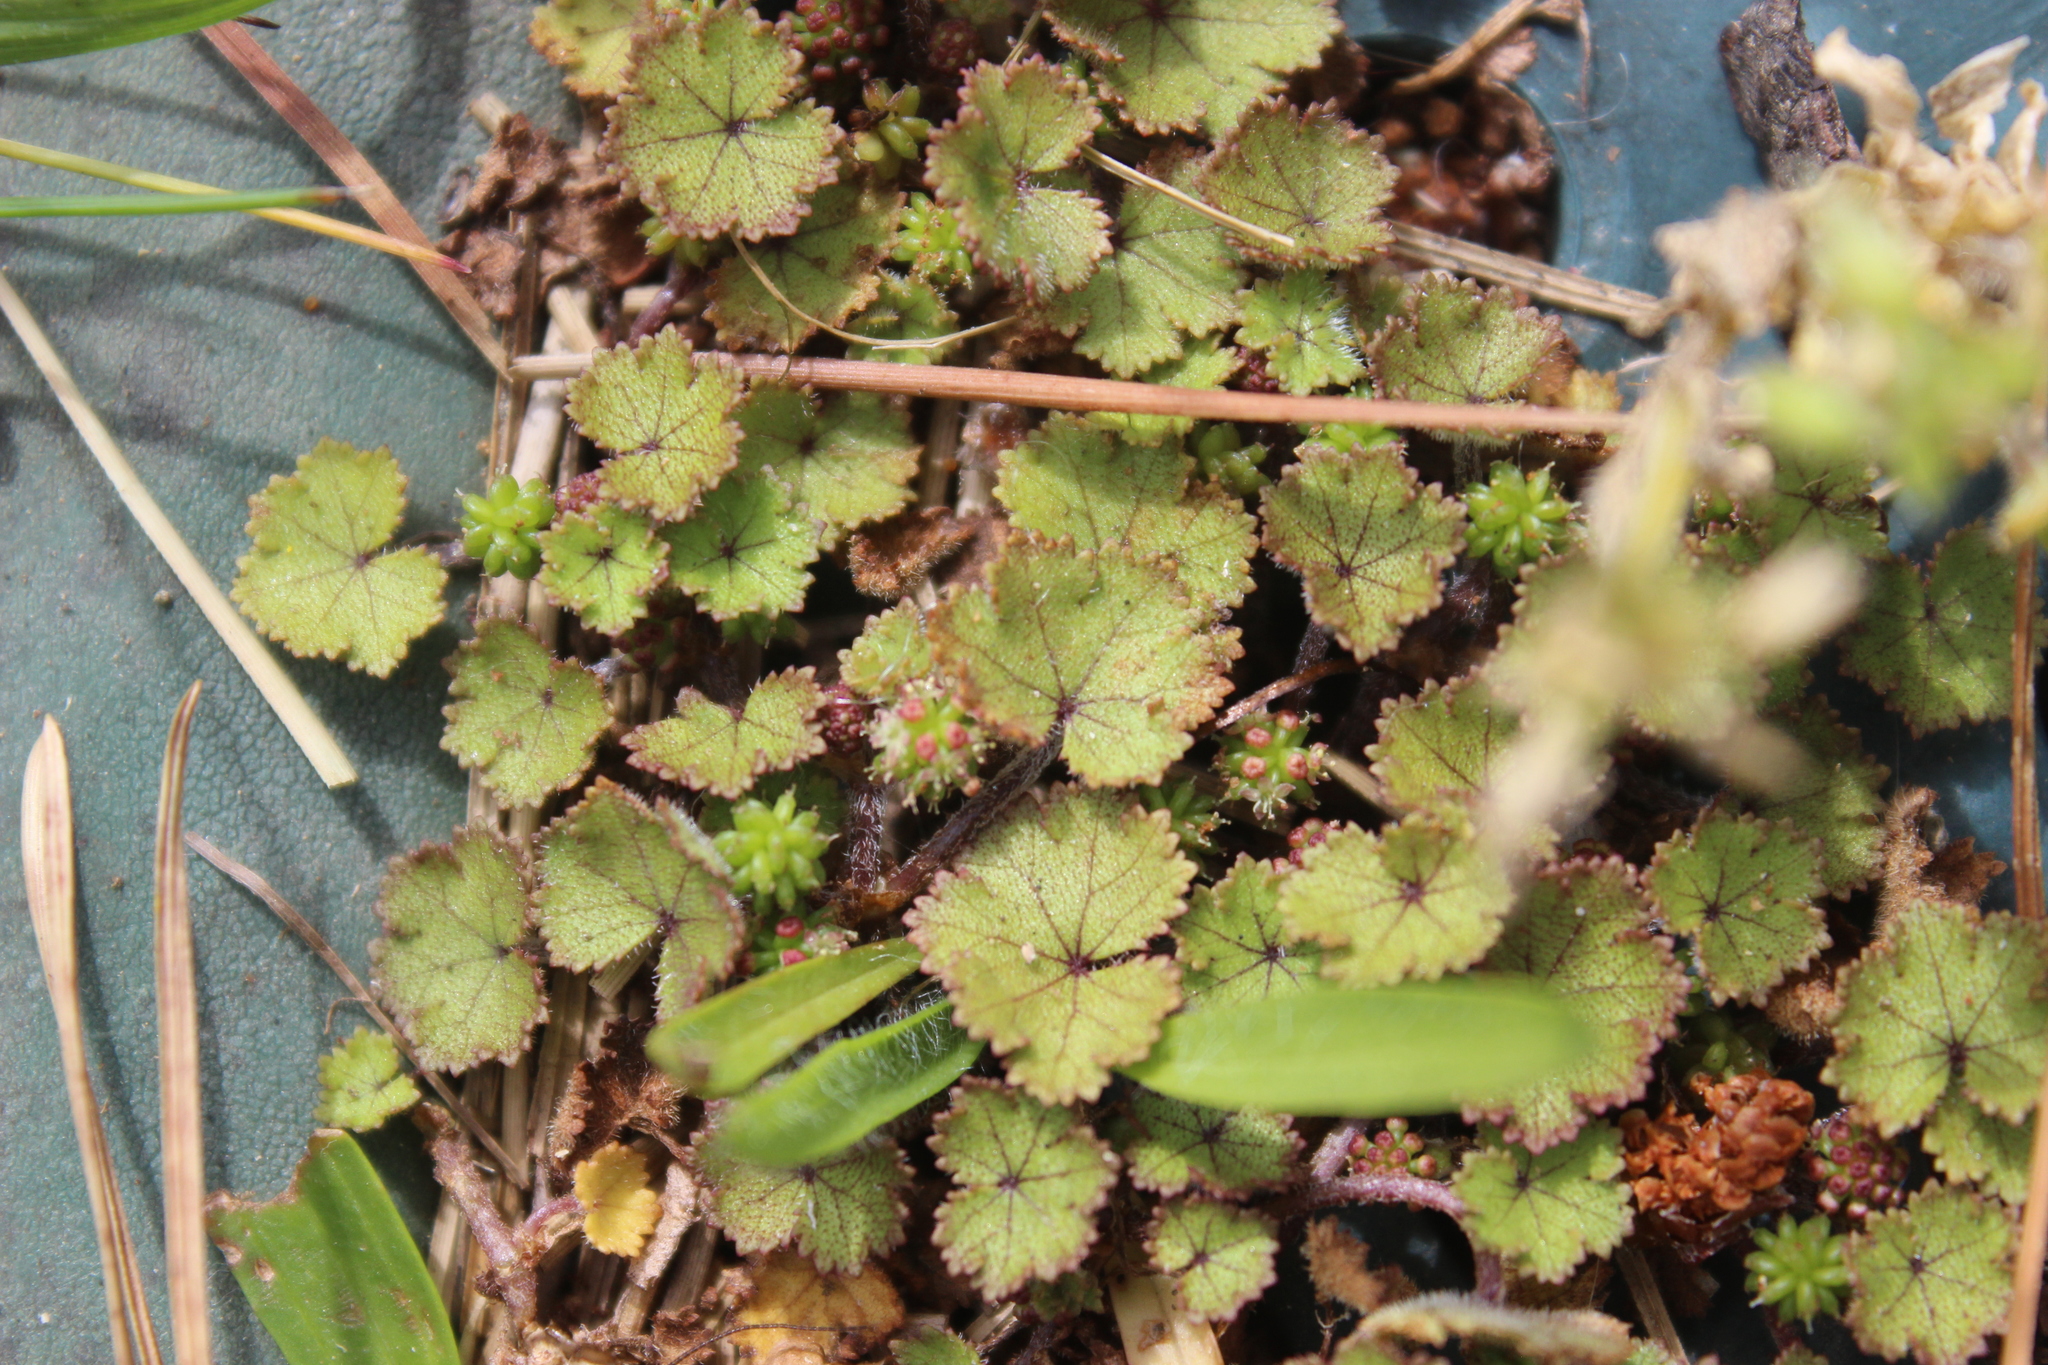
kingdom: Plantae
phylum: Tracheophyta
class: Magnoliopsida
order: Apiales
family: Araliaceae
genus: Hydrocotyle
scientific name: Hydrocotyle moschata
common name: Hairy pennywort
